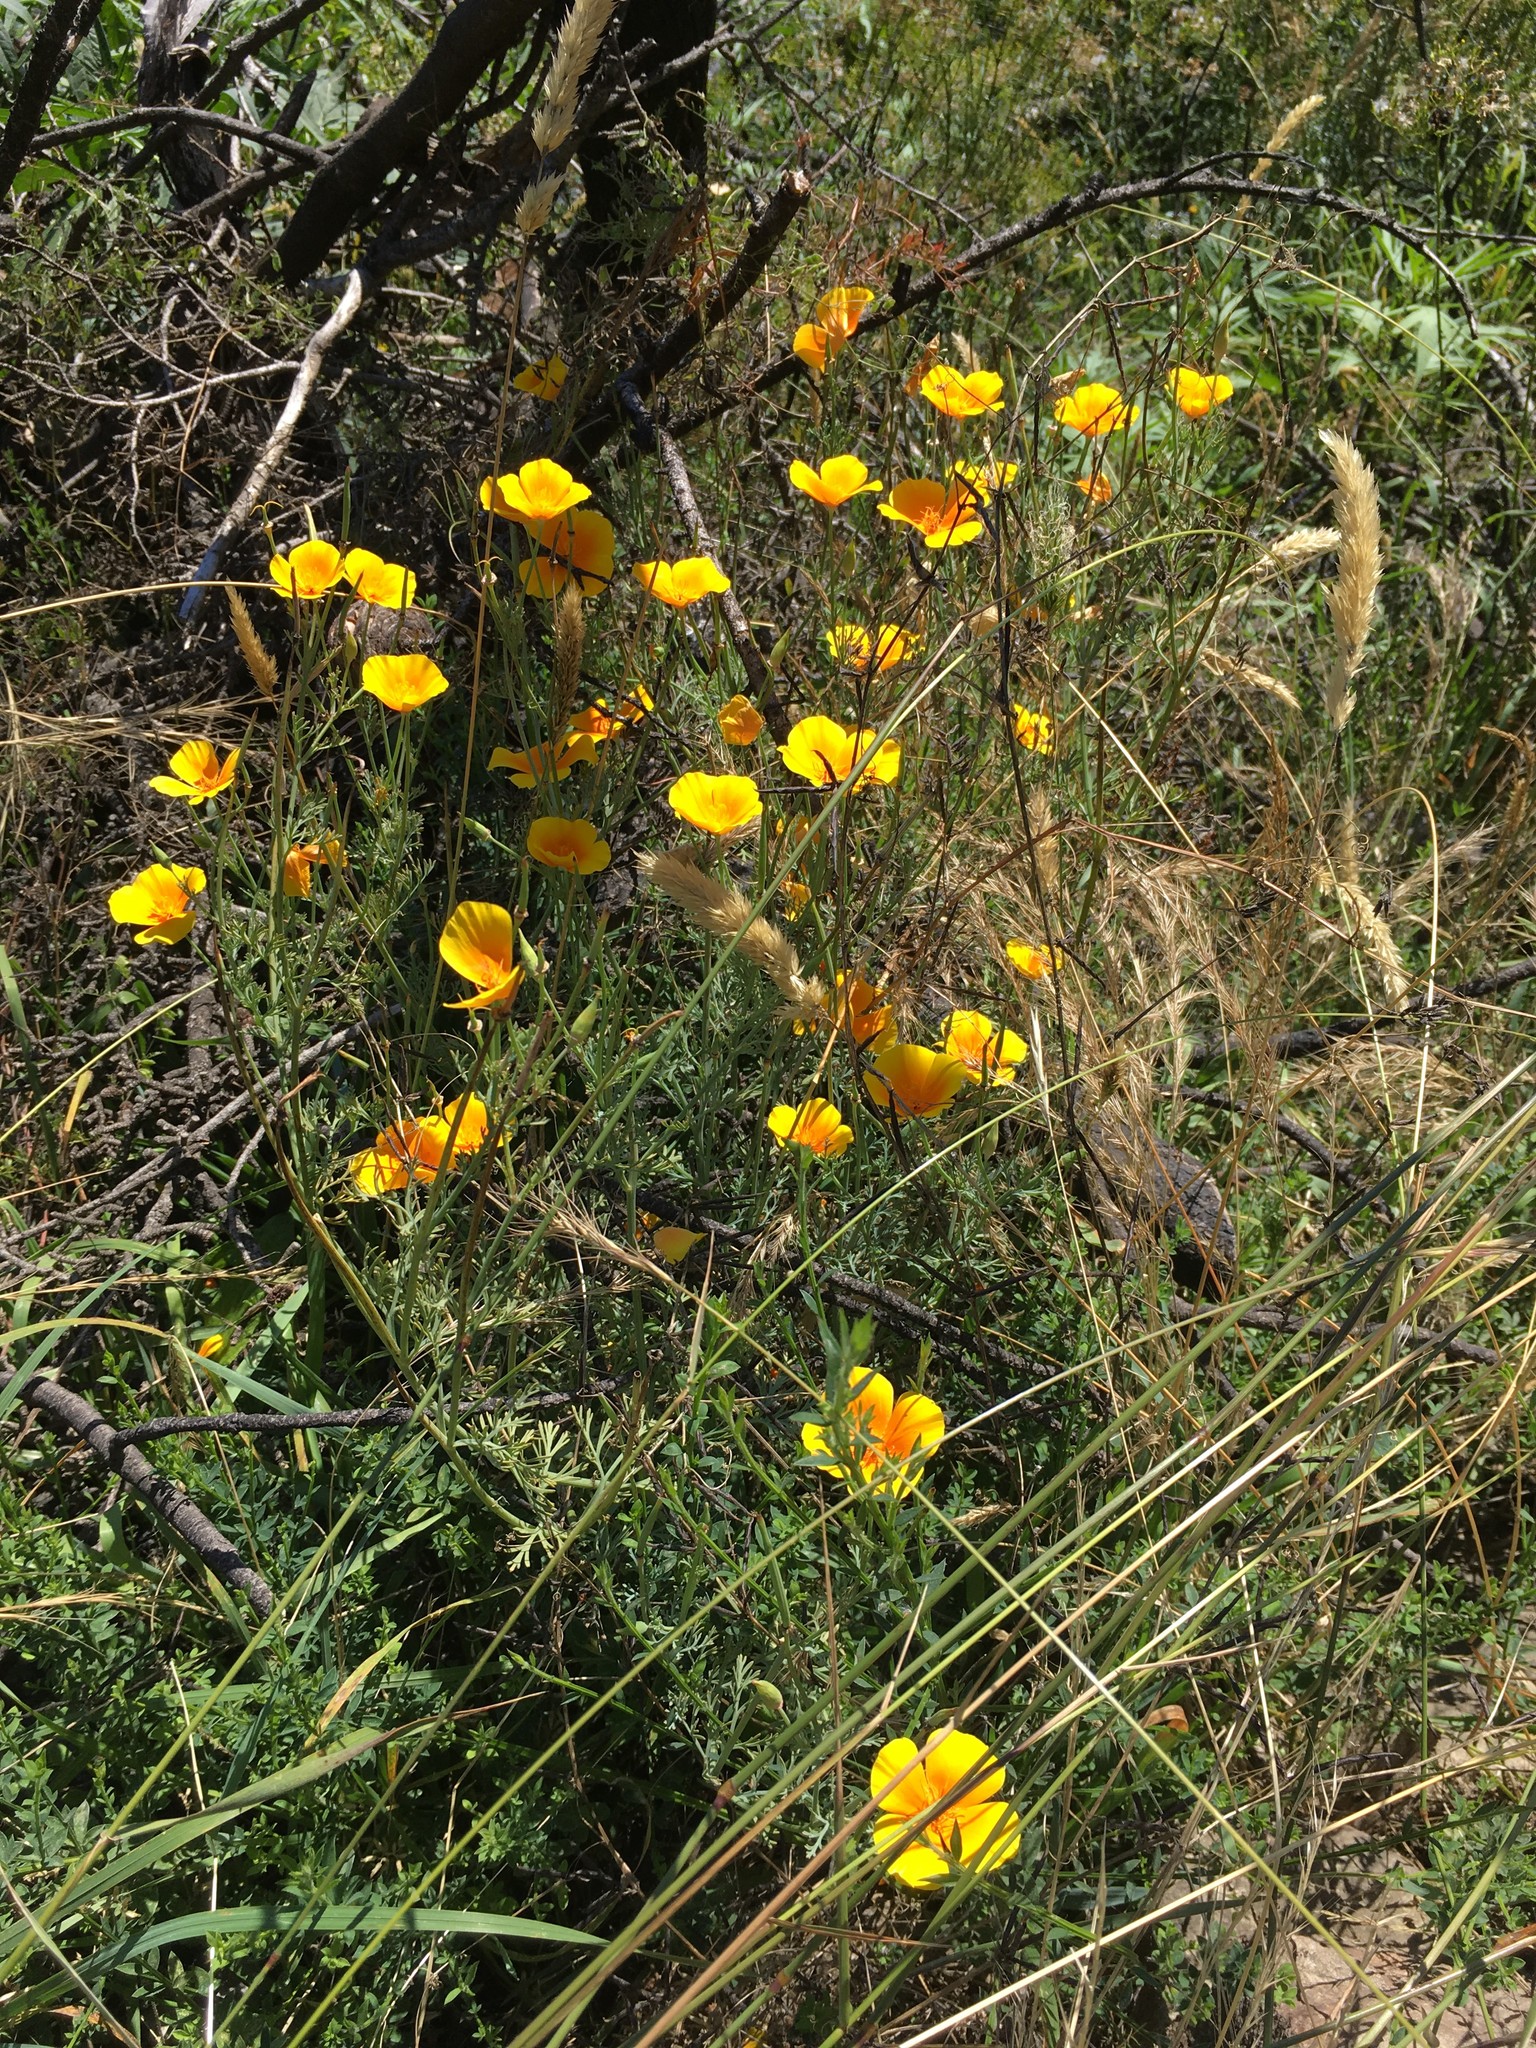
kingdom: Plantae
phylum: Tracheophyta
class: Magnoliopsida
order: Ranunculales
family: Papaveraceae
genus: Eschscholzia
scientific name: Eschscholzia californica
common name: California poppy
